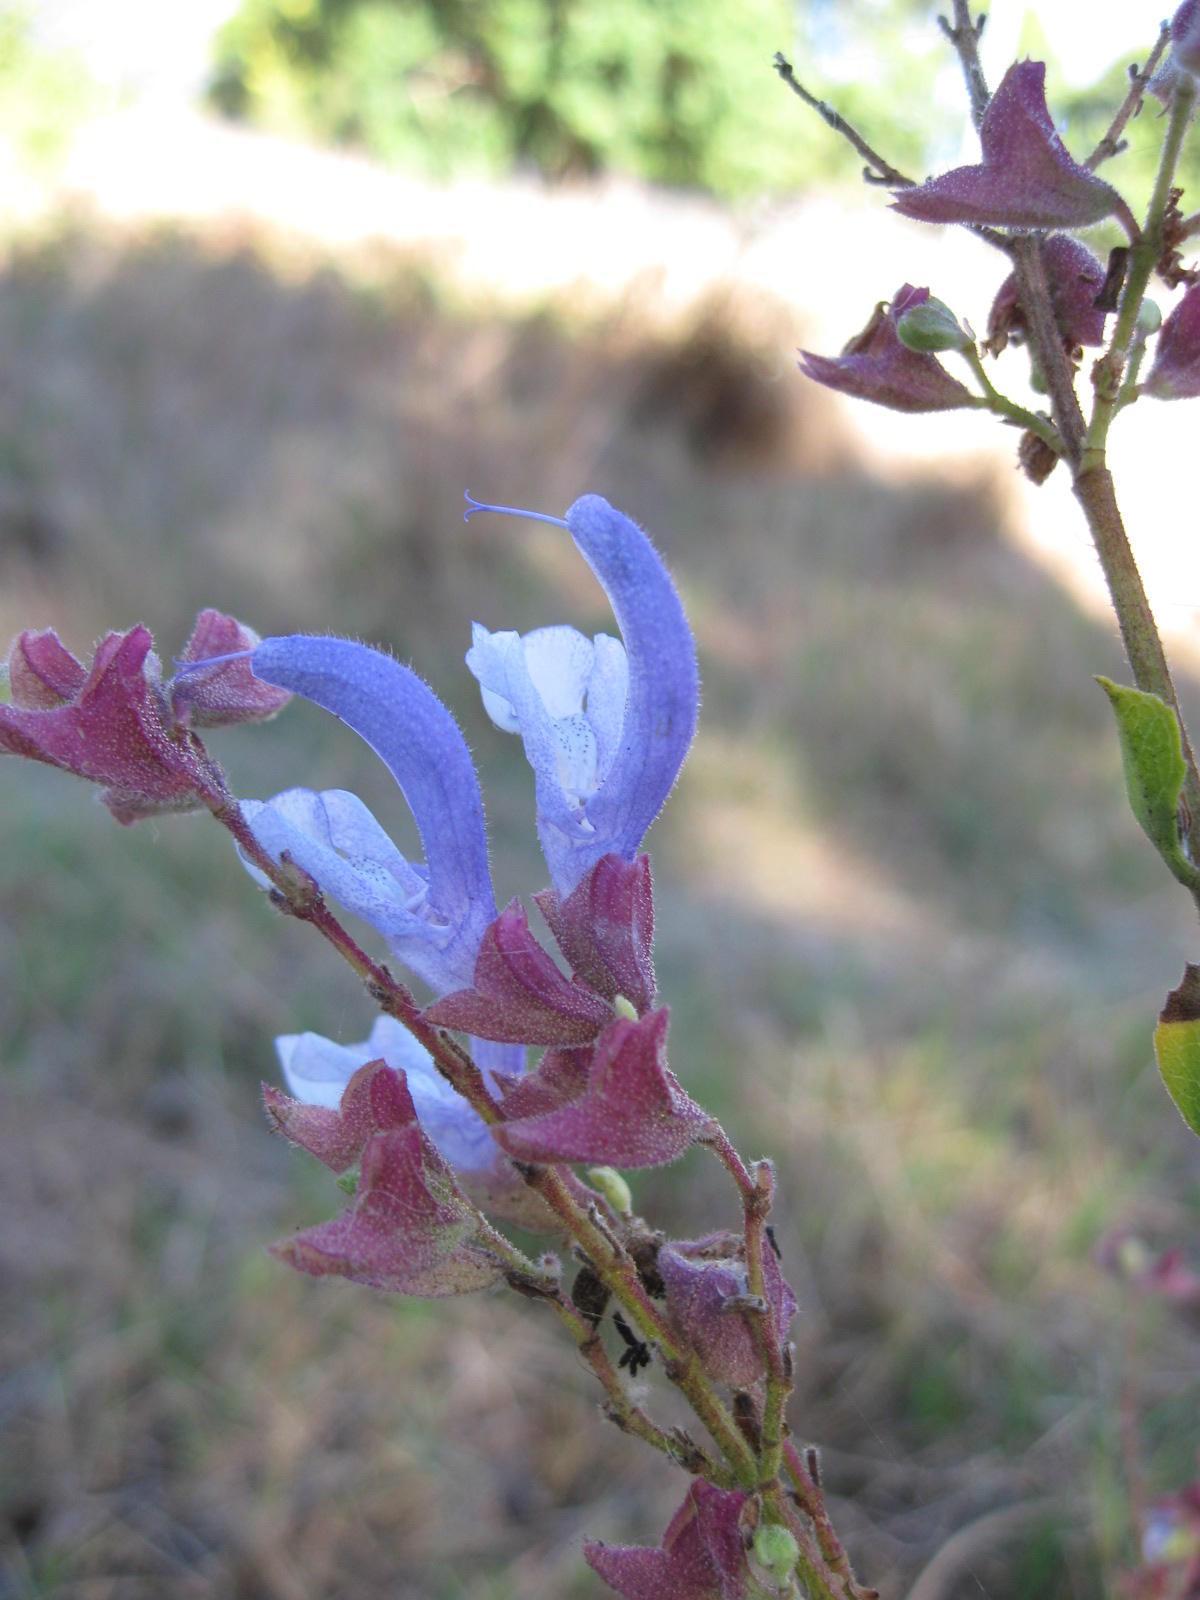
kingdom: Plantae
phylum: Tracheophyta
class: Magnoliopsida
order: Lamiales
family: Lamiaceae
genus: Salvia
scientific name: Salvia chamelaeagnea
